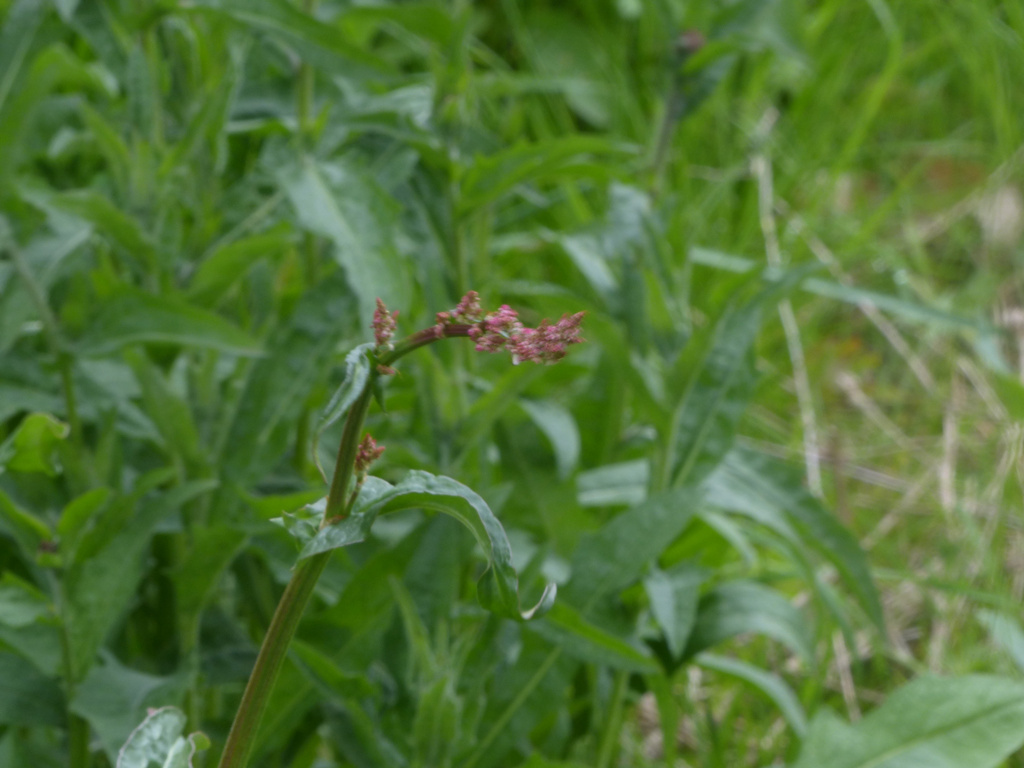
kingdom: Plantae
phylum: Tracheophyta
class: Magnoliopsida
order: Caryophyllales
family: Polygonaceae
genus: Rumex
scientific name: Rumex acetosa
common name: Garden sorrel
